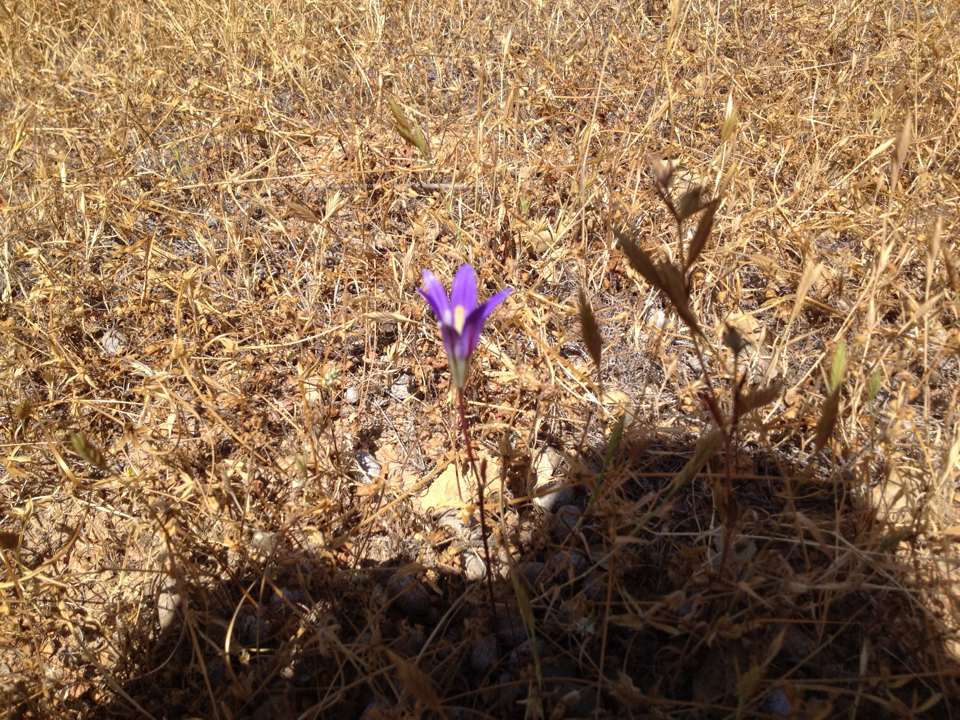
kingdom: Plantae
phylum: Tracheophyta
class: Liliopsida
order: Asparagales
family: Asparagaceae
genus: Brodiaea
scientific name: Brodiaea elegans
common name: Elegant cluster-lily
